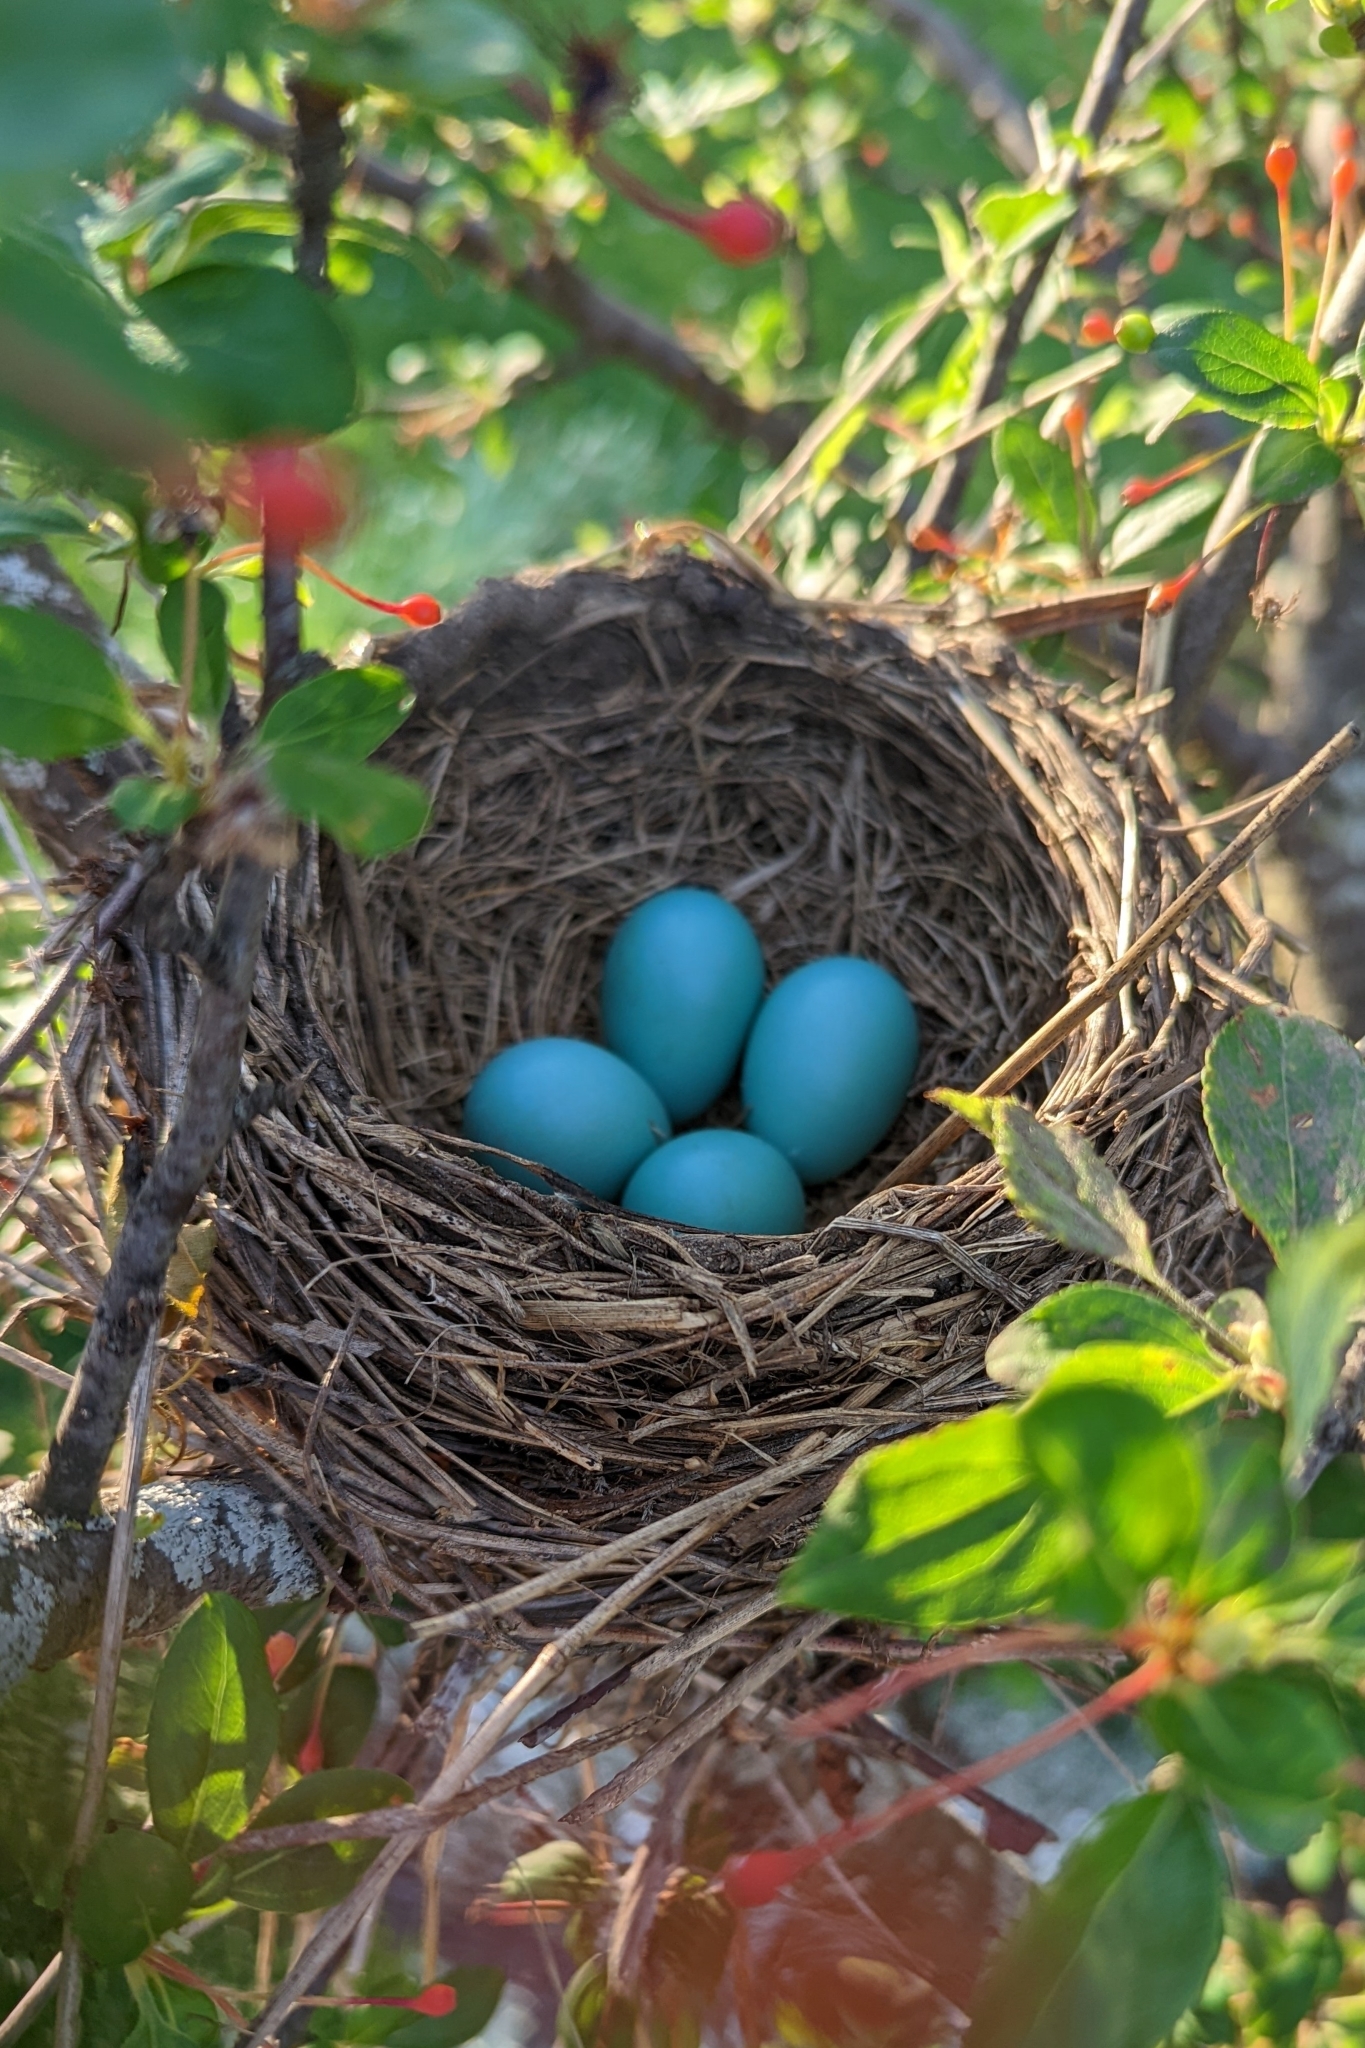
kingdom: Animalia
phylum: Chordata
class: Aves
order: Passeriformes
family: Turdidae
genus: Turdus
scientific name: Turdus migratorius
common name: American robin
